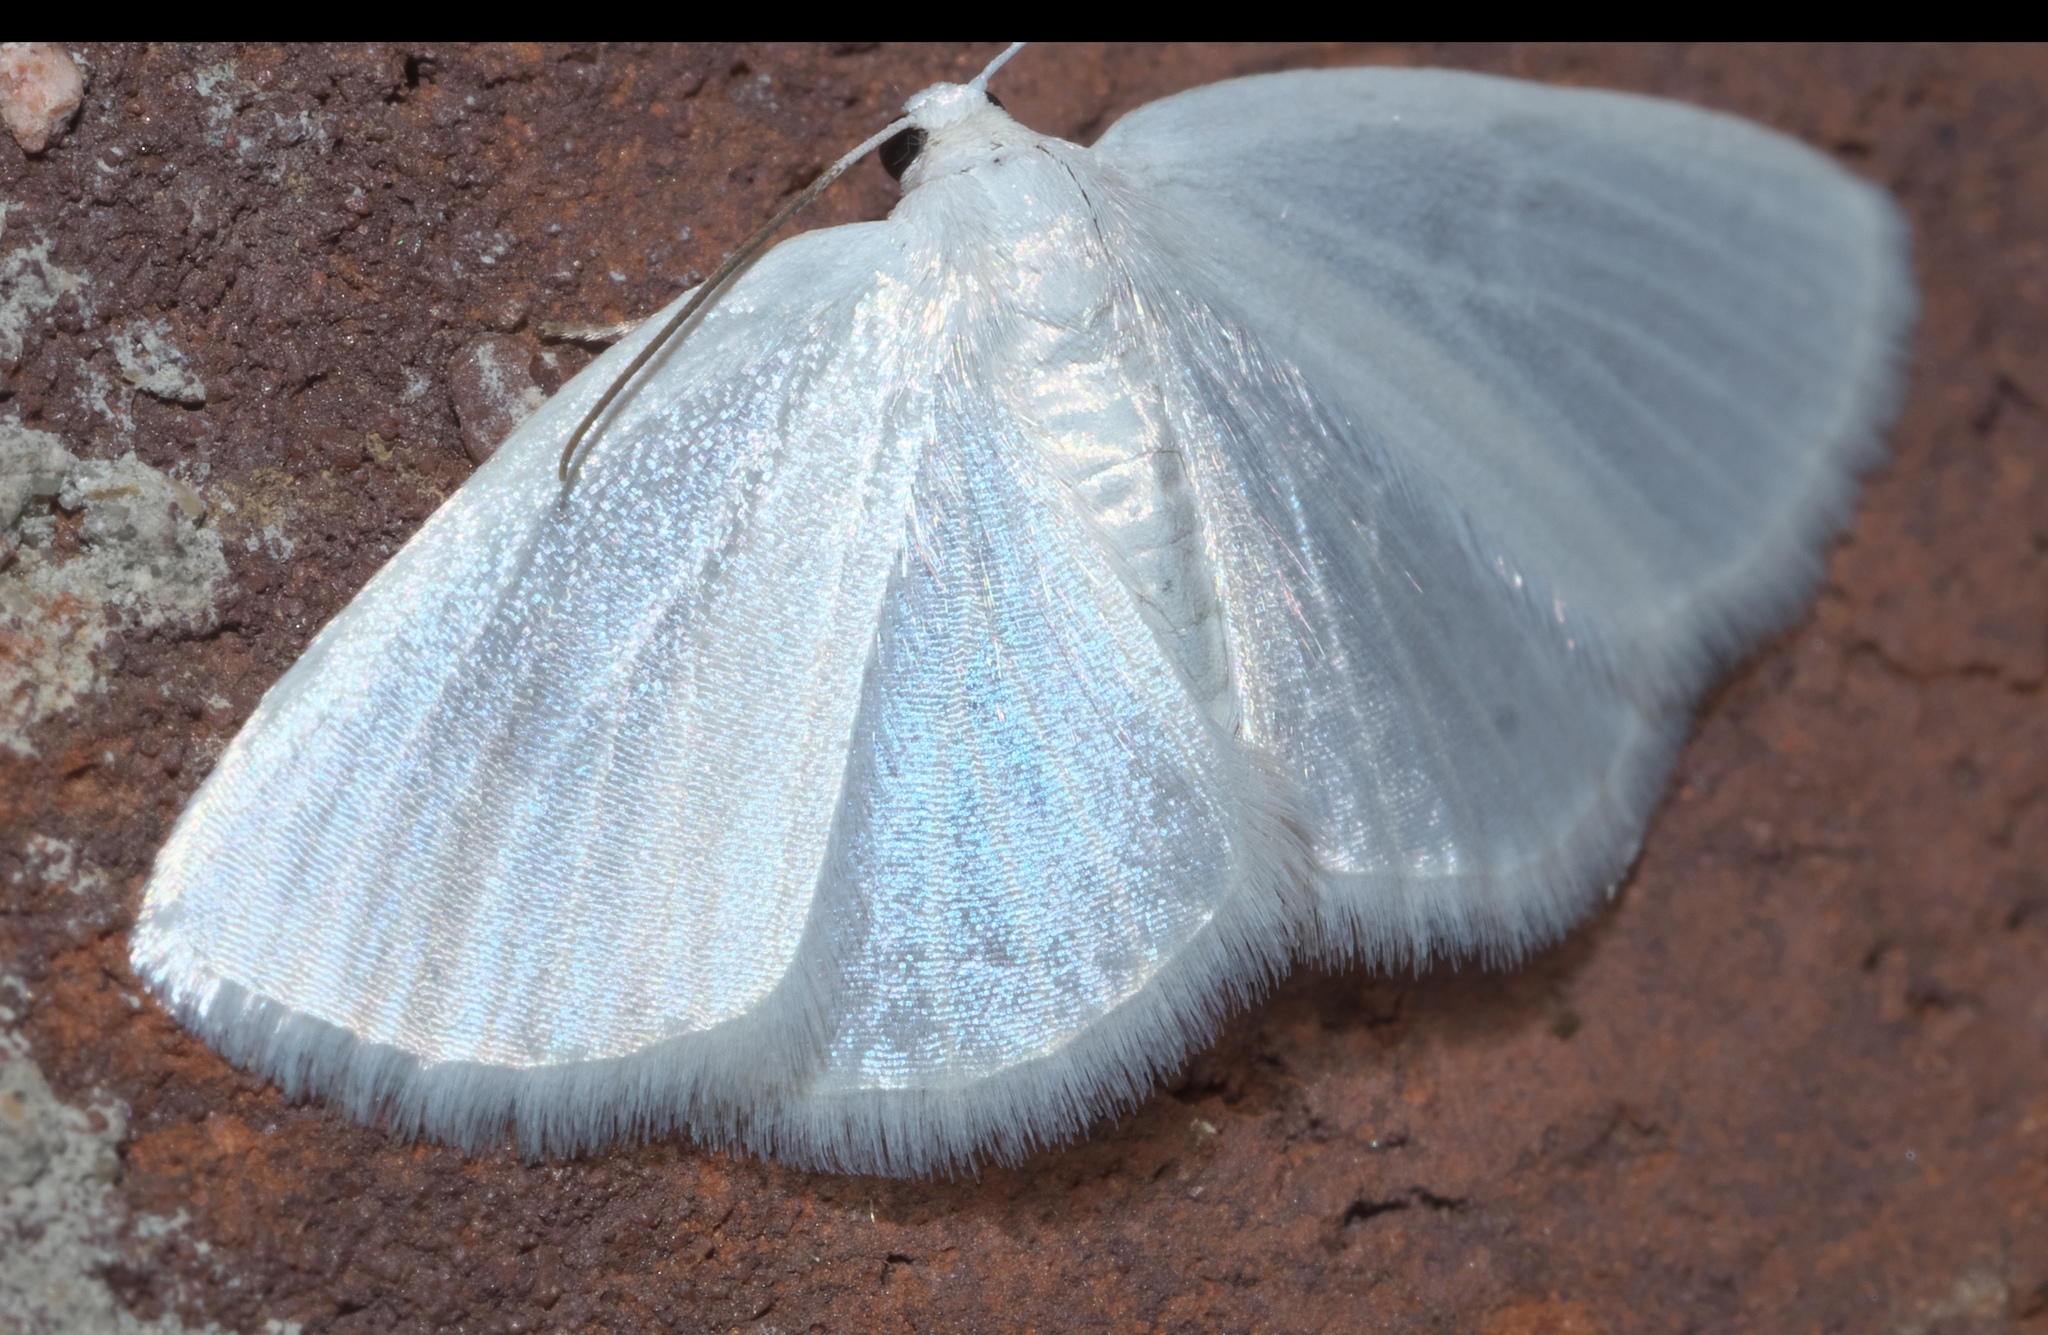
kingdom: Animalia
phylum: Arthropoda
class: Insecta
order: Lepidoptera
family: Geometridae
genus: Lomographa
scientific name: Lomographa vestaliata
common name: White spring moth
